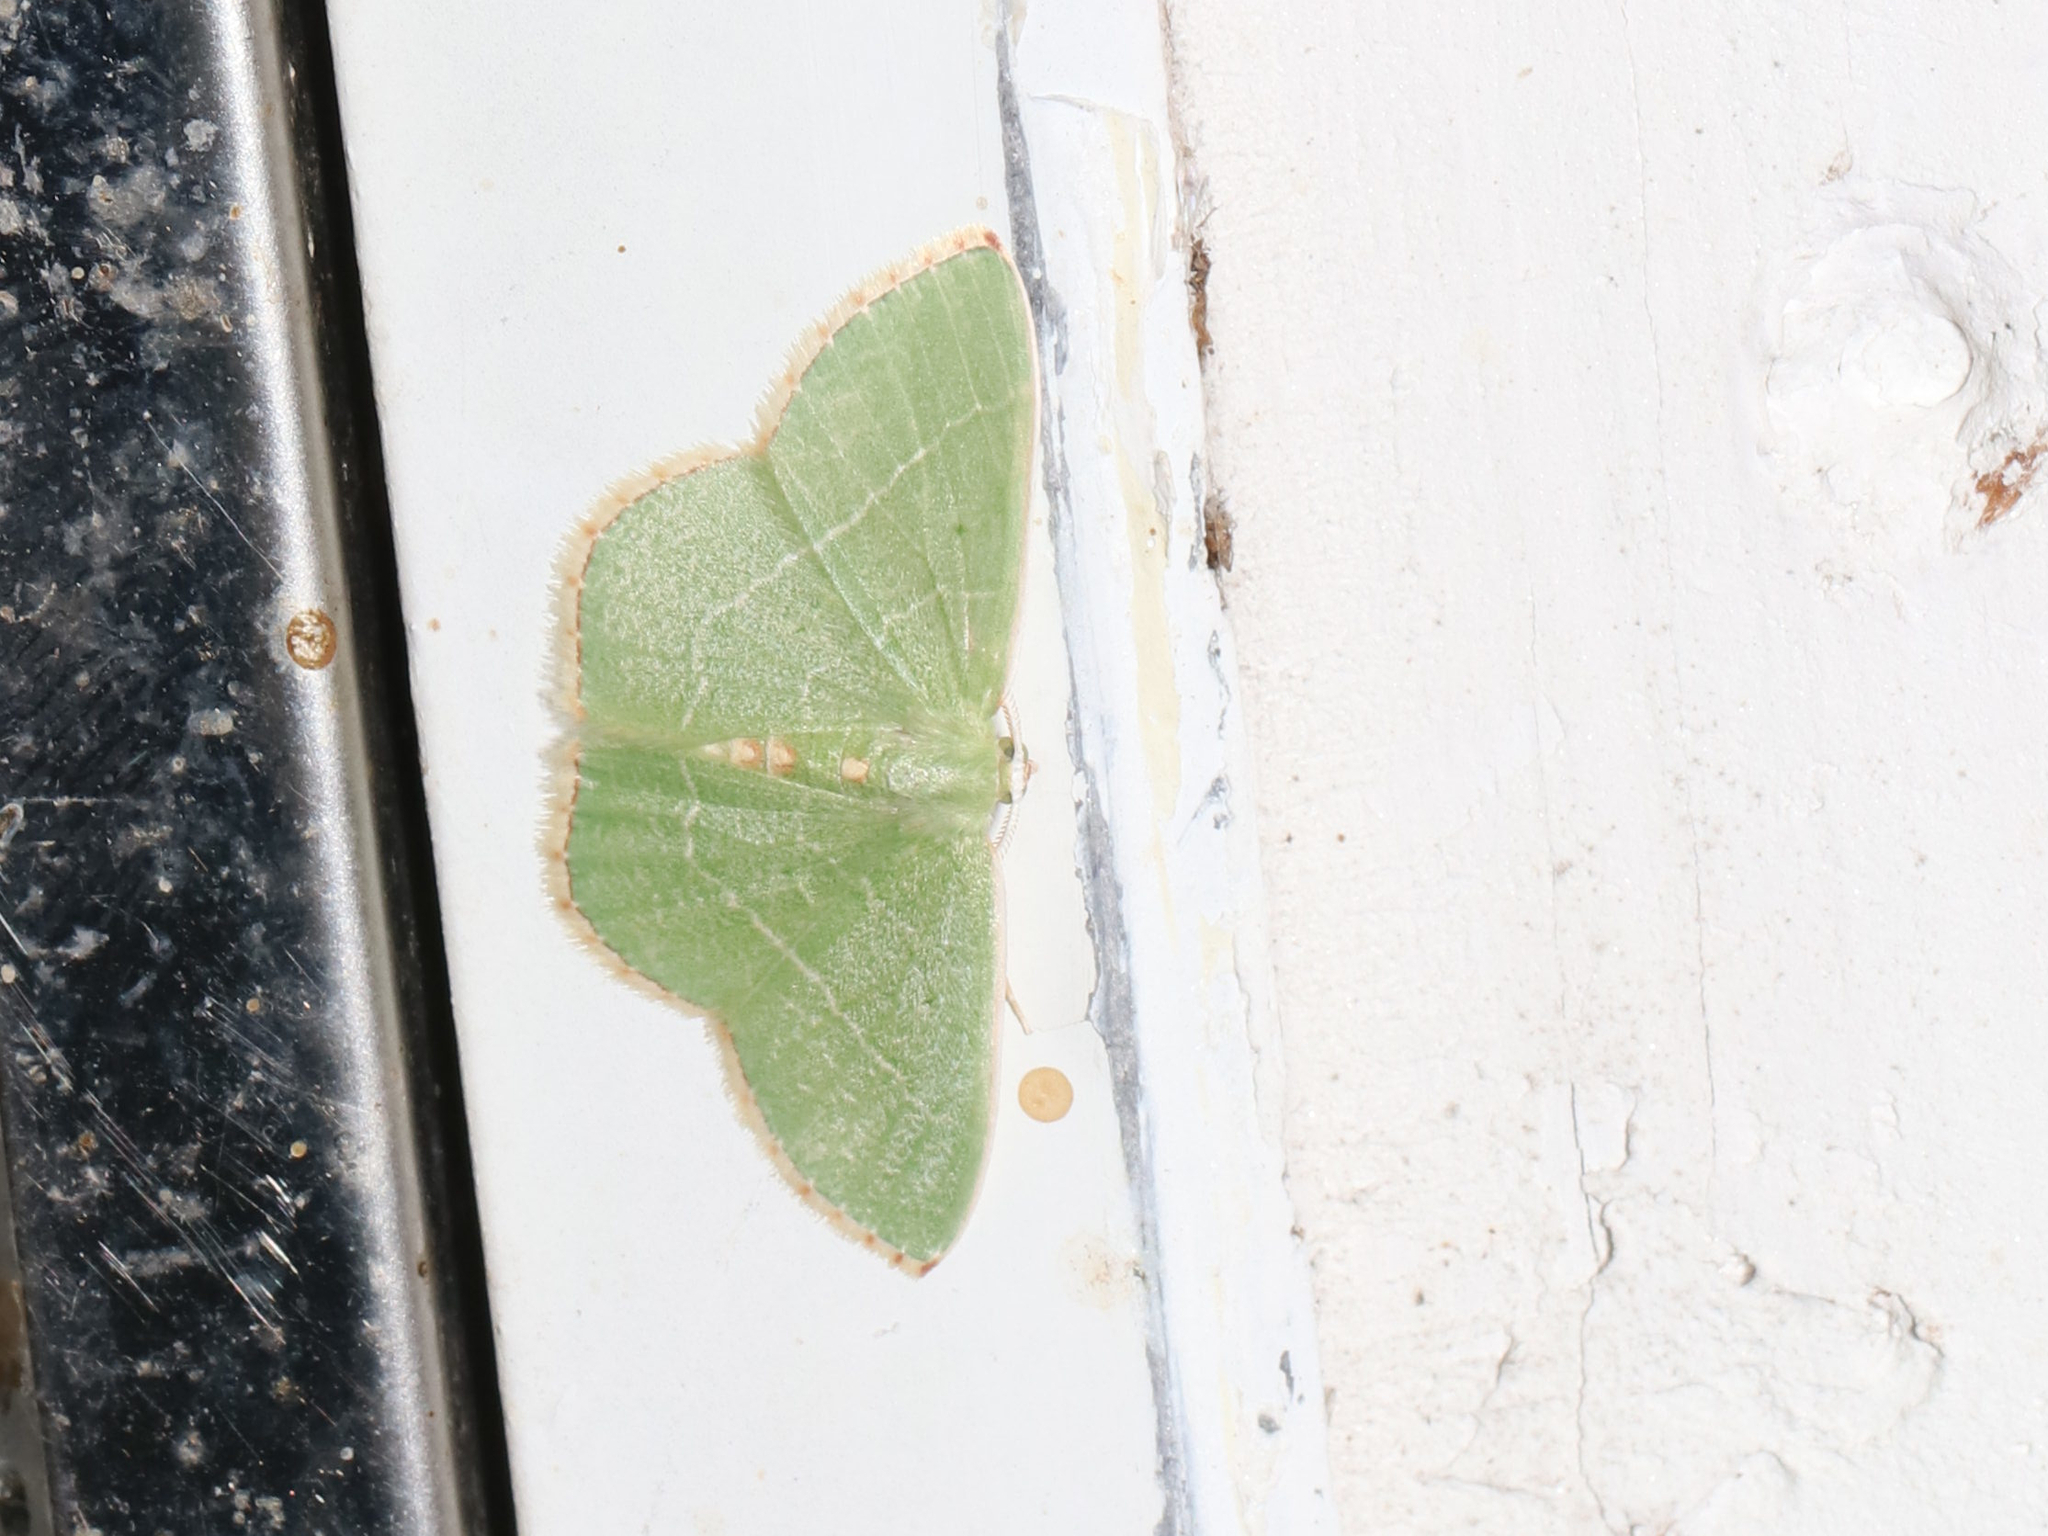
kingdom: Animalia
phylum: Arthropoda
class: Insecta
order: Lepidoptera
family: Geometridae
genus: Nemoria
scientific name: Nemoria bistriaria
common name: Red-fringed emerald
